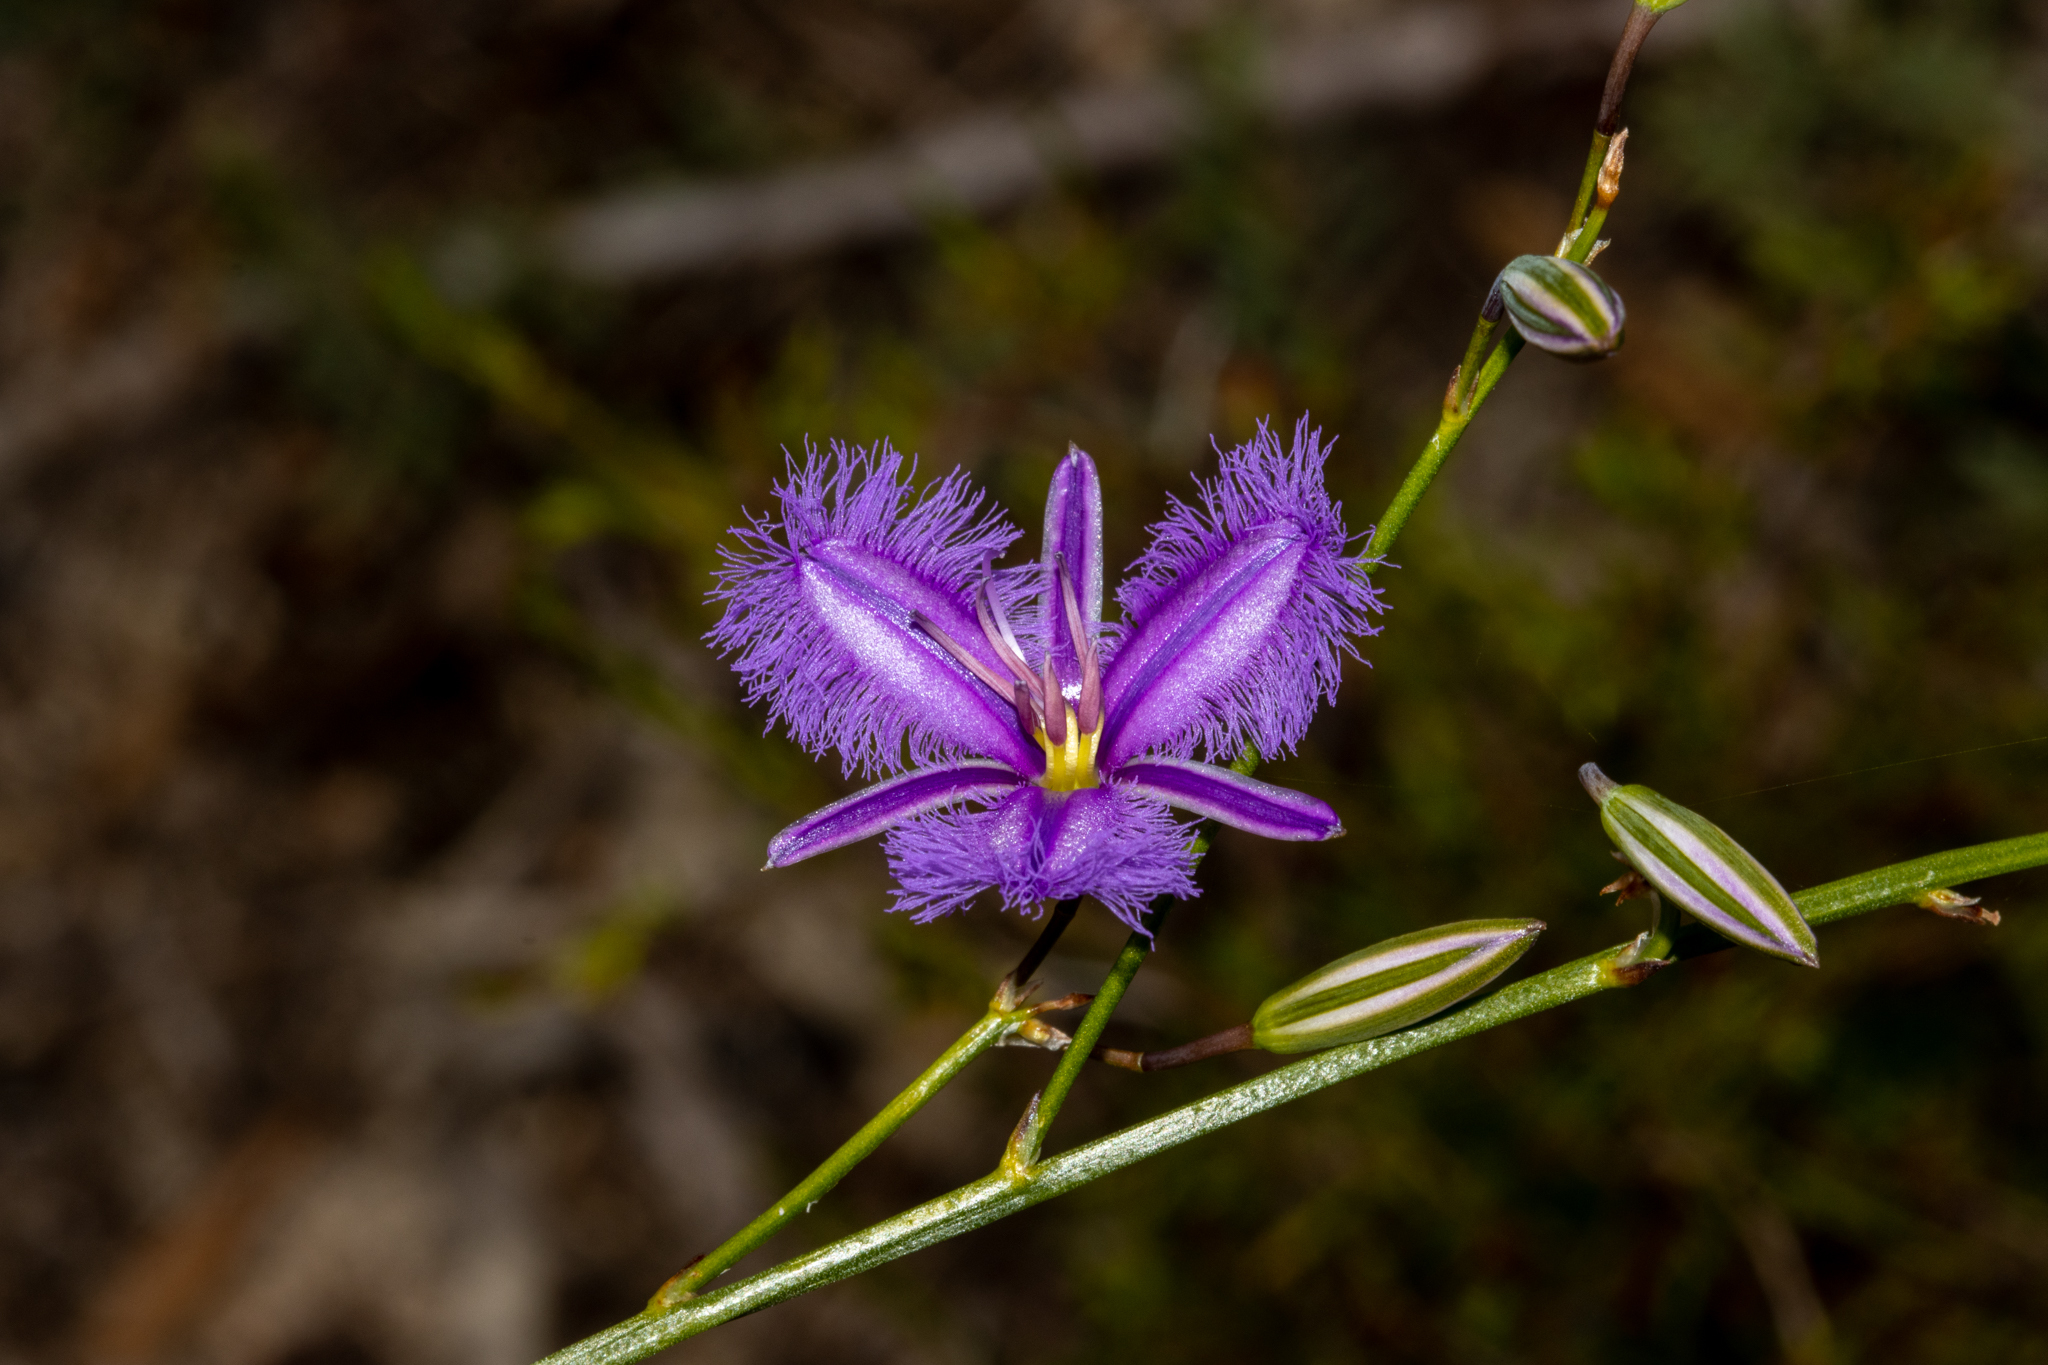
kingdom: Plantae
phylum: Tracheophyta
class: Liliopsida
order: Asparagales
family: Asparagaceae
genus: Thysanotus
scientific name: Thysanotus racemoides
